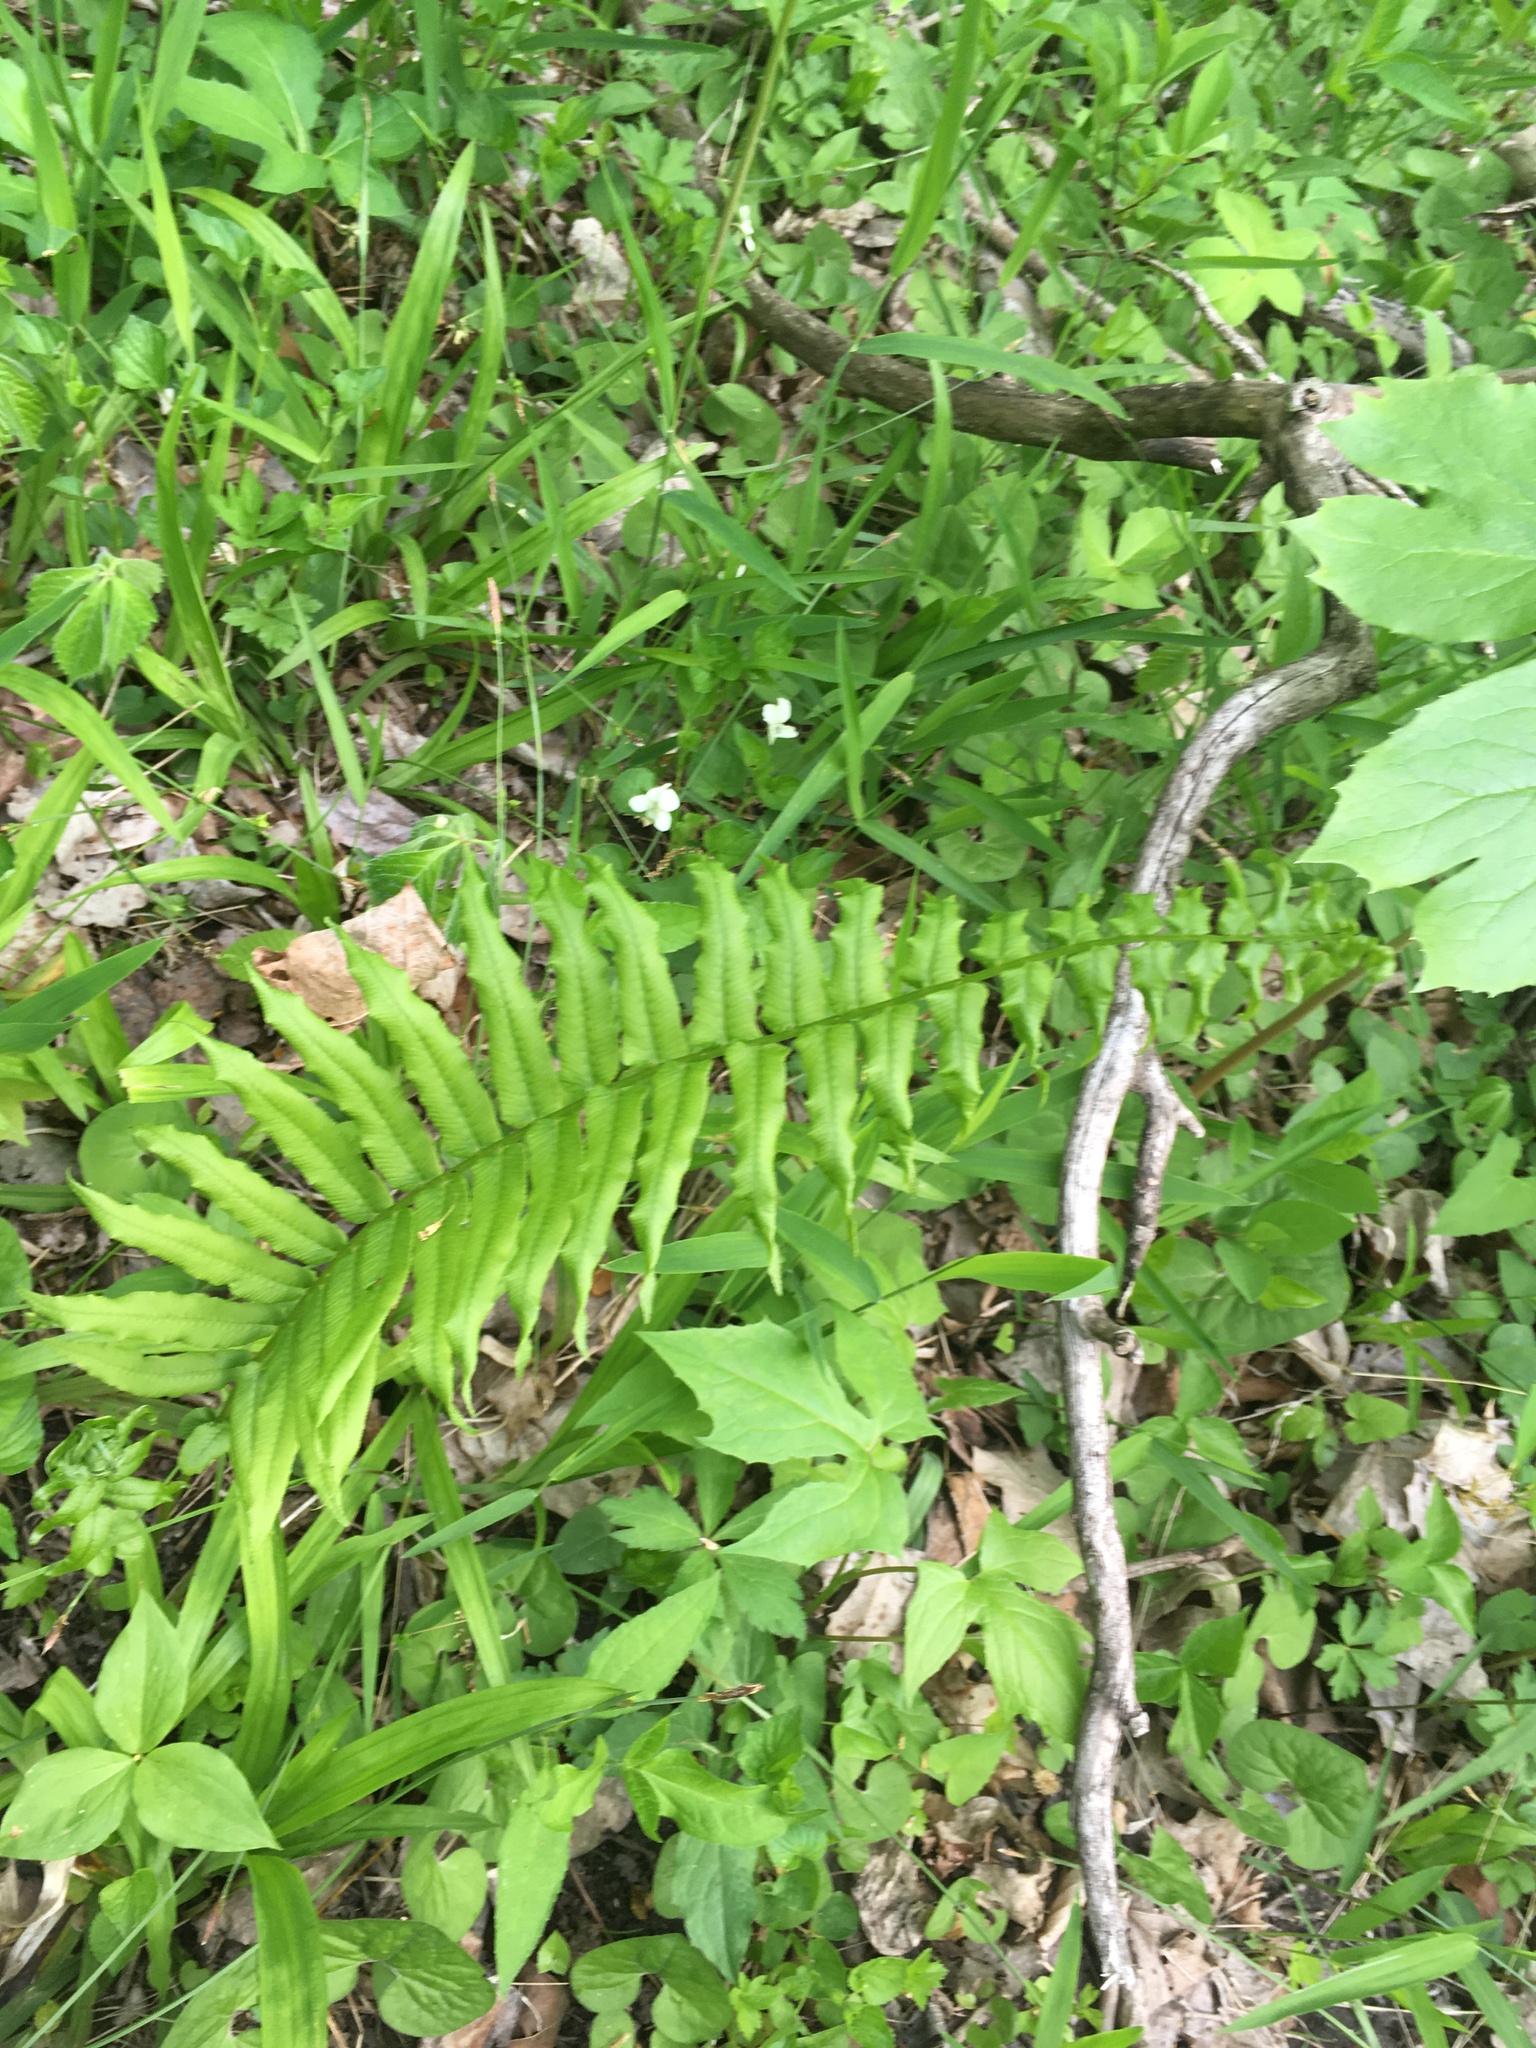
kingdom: Plantae
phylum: Tracheophyta
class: Polypodiopsida
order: Polypodiales
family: Diplaziopsidaceae
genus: Homalosorus
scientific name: Homalosorus pycnocarpos
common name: Glade fern
